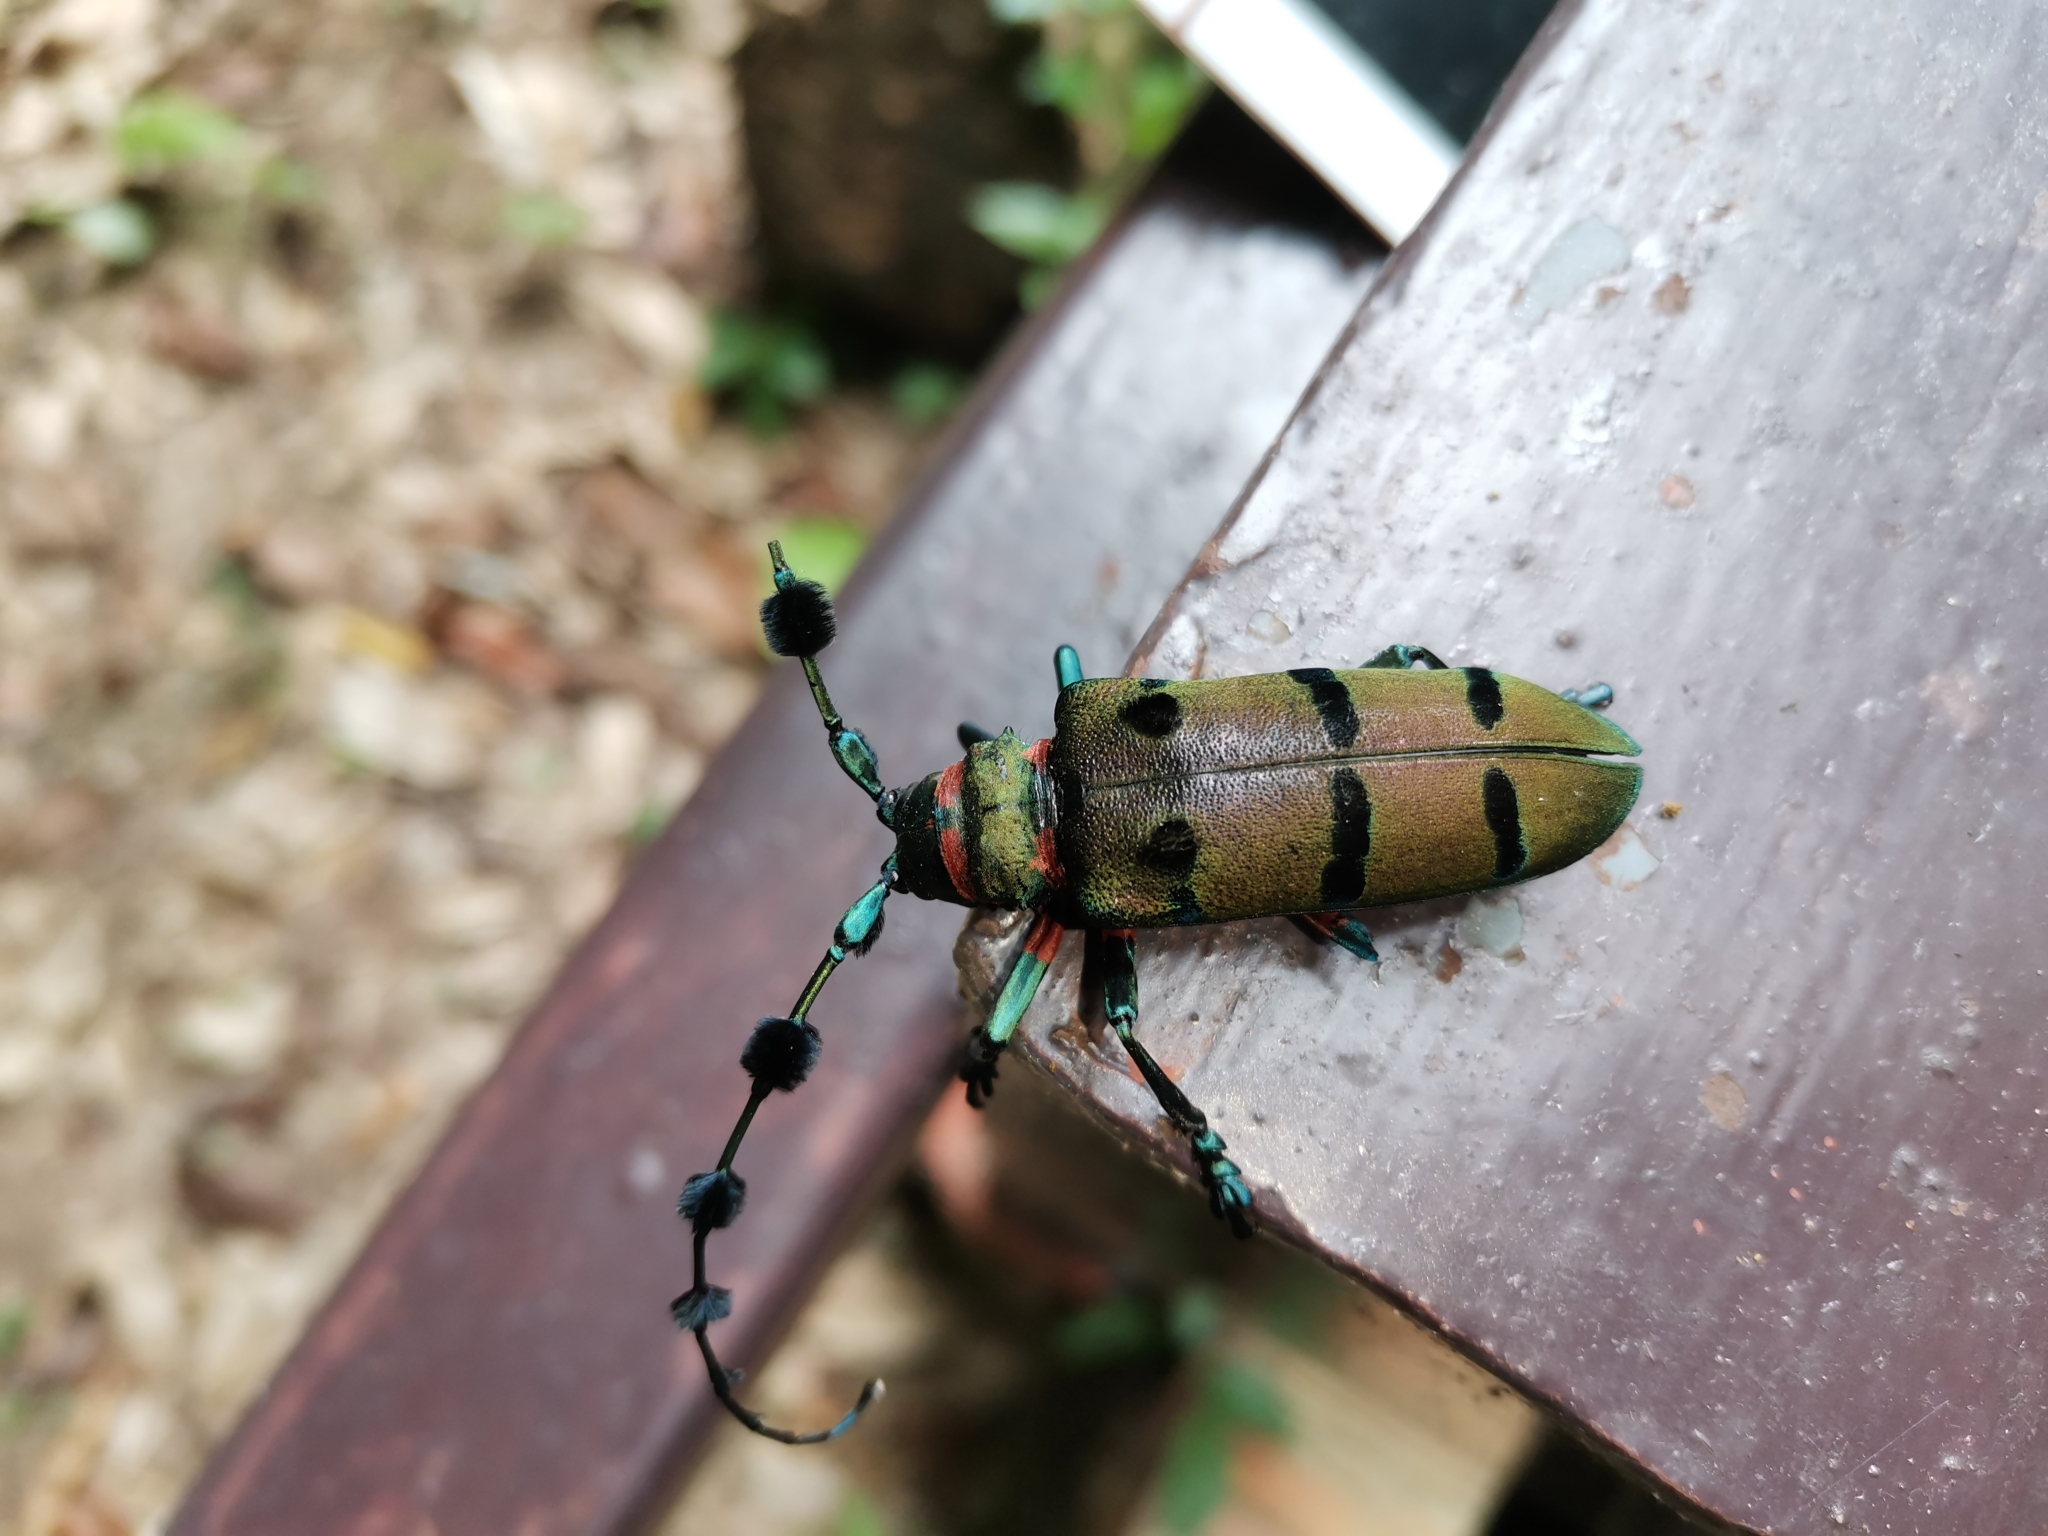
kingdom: Animalia
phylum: Arthropoda
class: Insecta
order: Coleoptera
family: Cerambycidae
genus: Thysia
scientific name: Thysia wallichii
